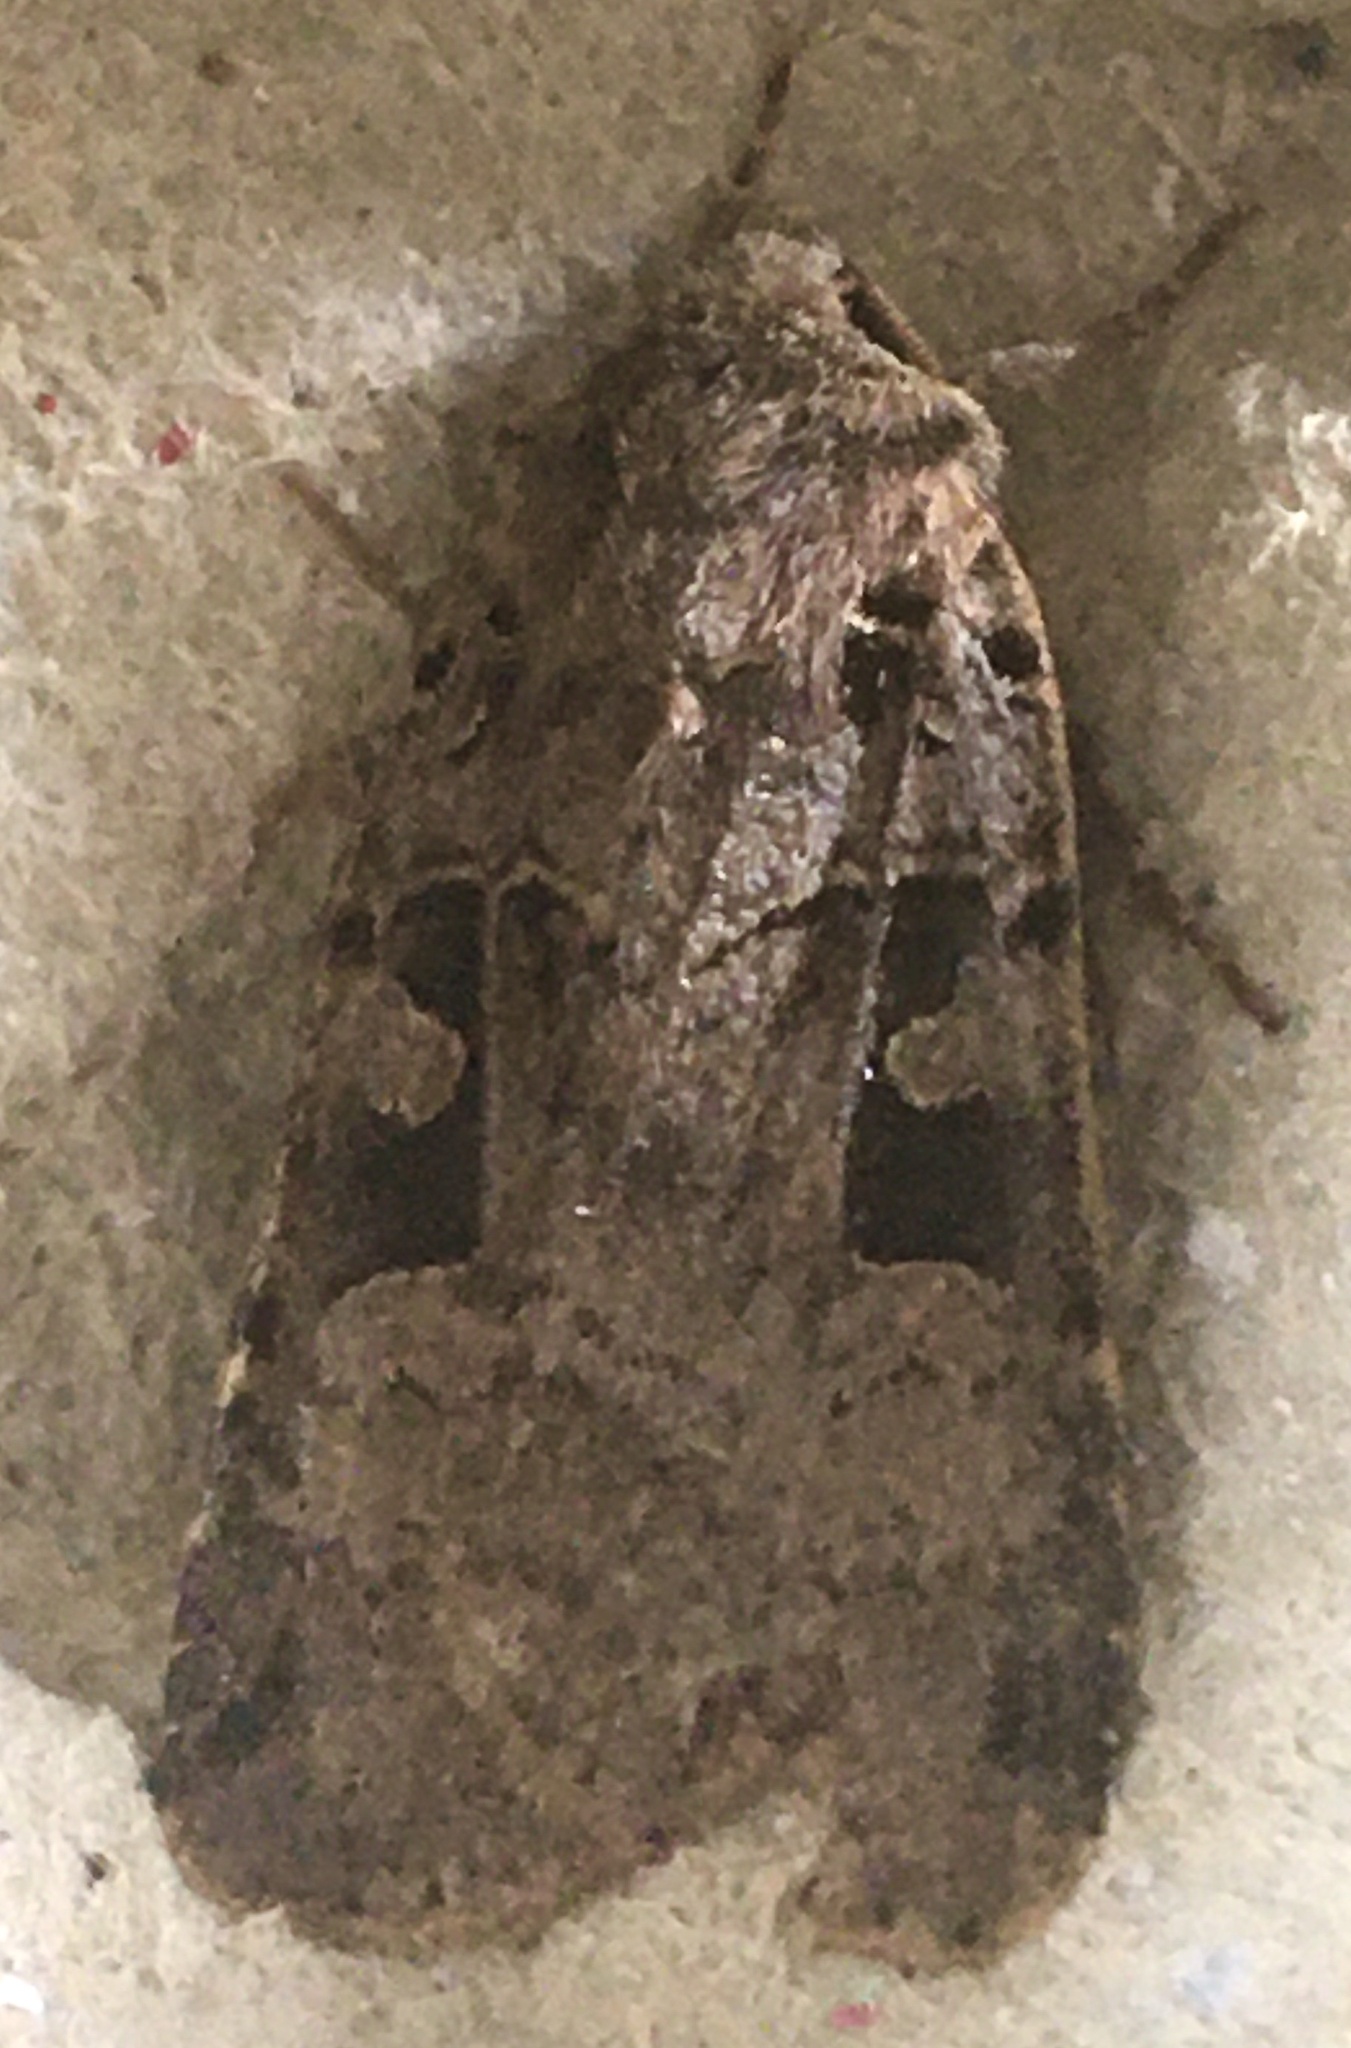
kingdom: Animalia
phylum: Arthropoda
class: Insecta
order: Lepidoptera
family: Noctuidae
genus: Xestia
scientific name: Xestia triangulum
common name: Double square-spot
